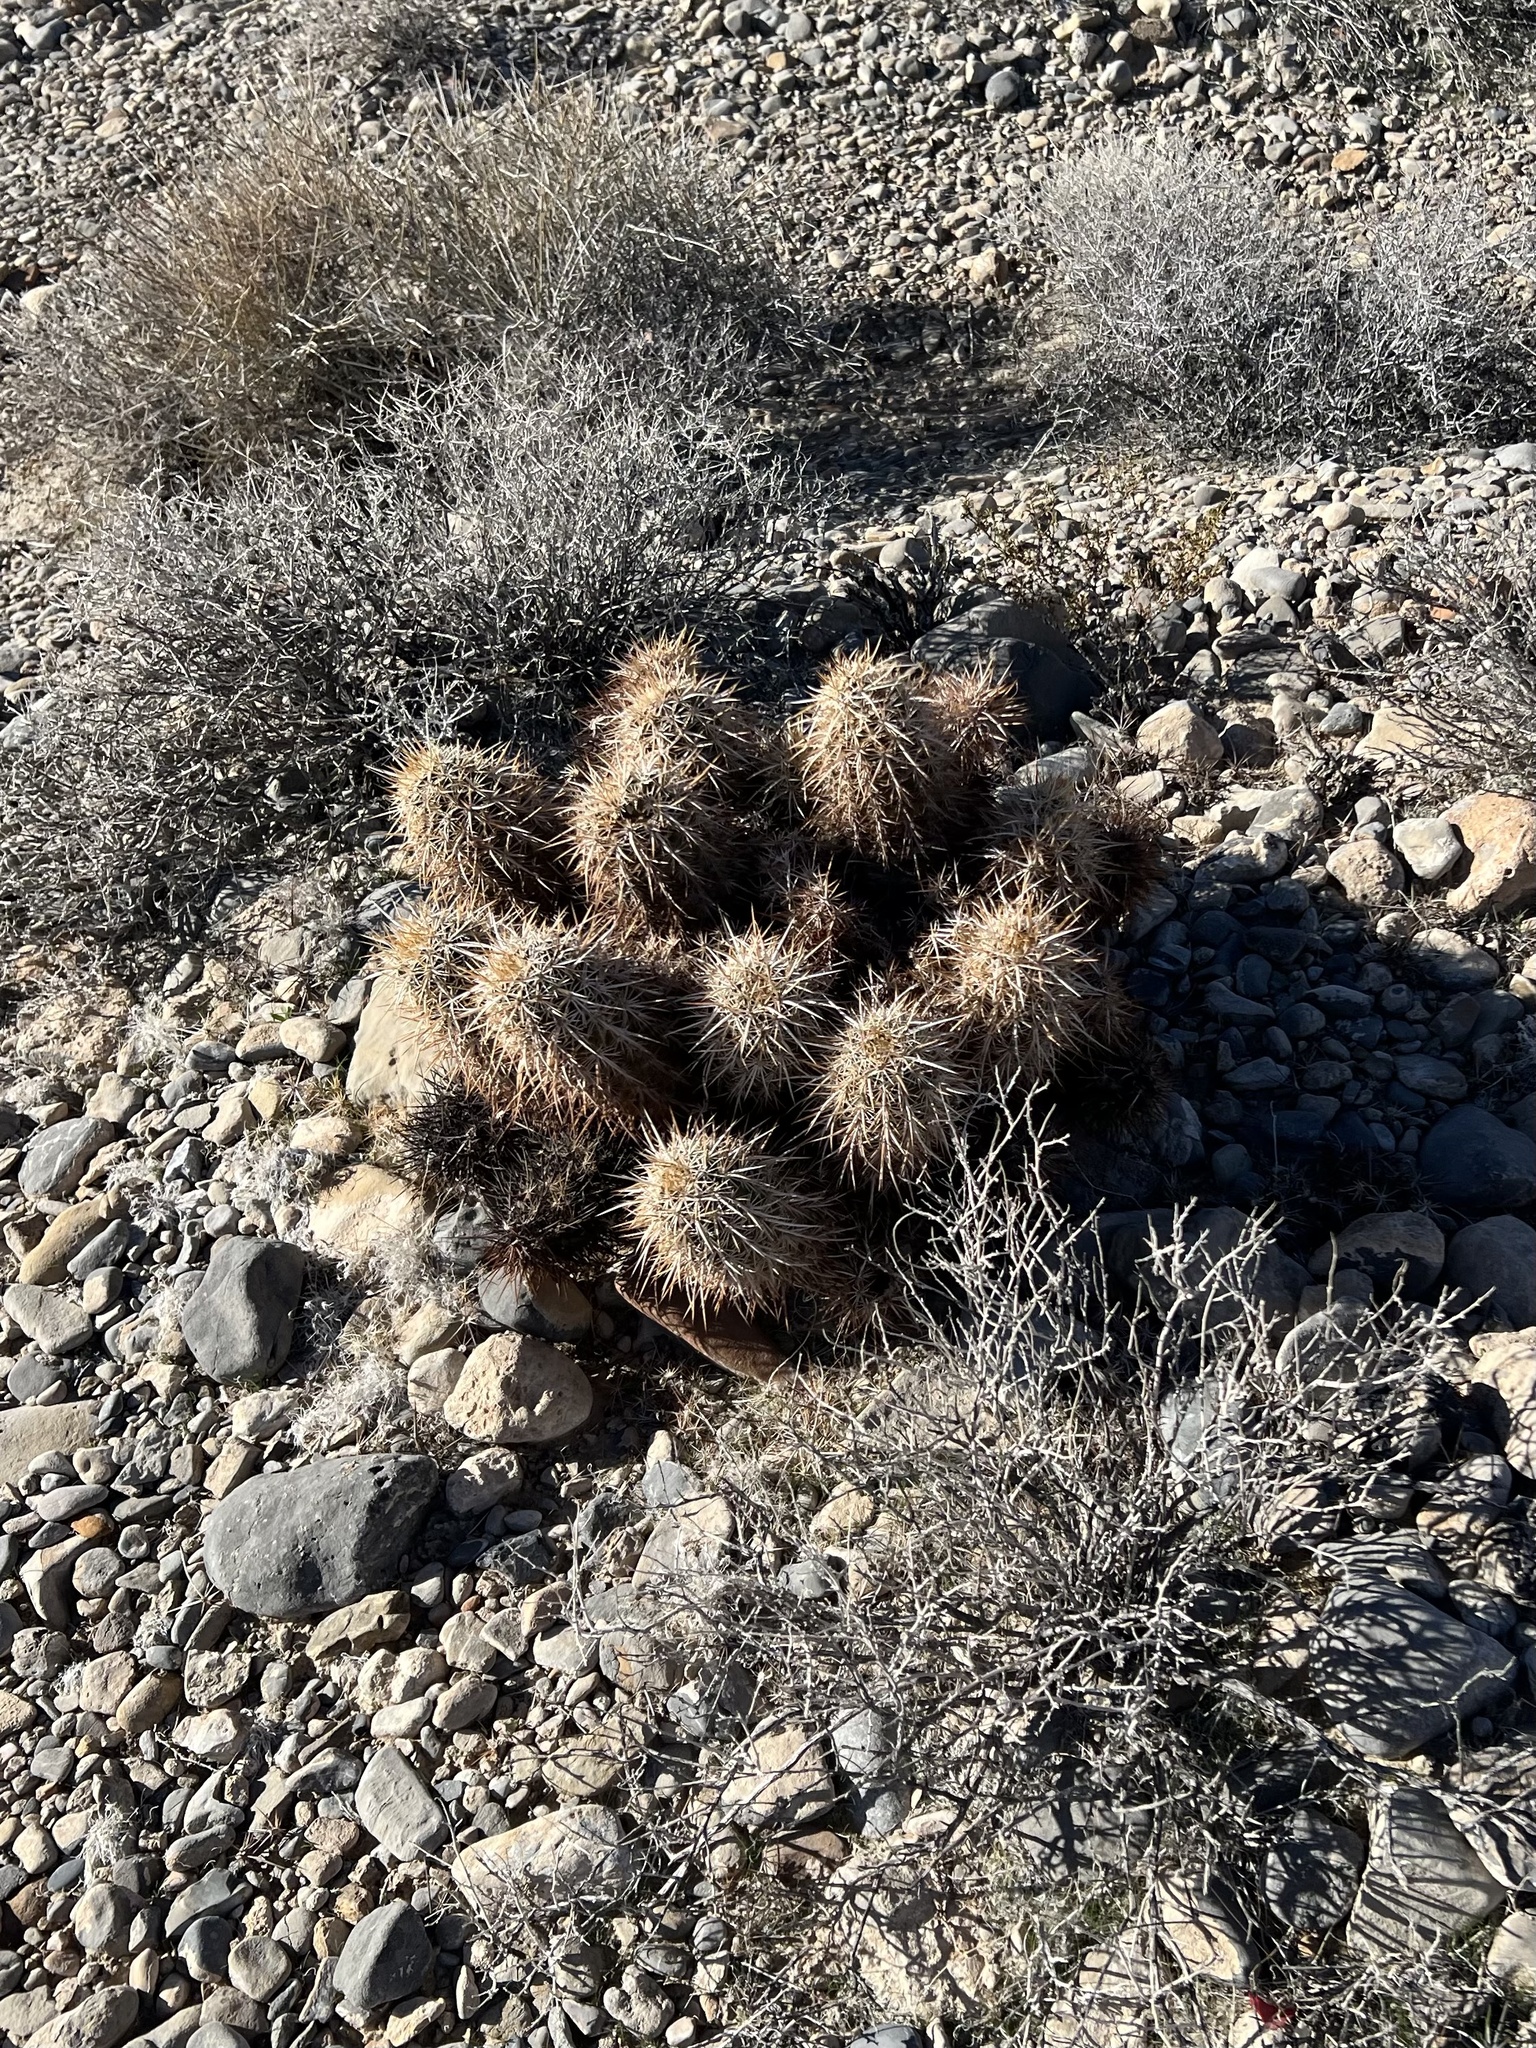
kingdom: Plantae
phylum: Tracheophyta
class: Magnoliopsida
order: Caryophyllales
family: Cactaceae
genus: Echinocereus
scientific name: Echinocereus engelmannii
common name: Engelmann's hedgehog cactus
